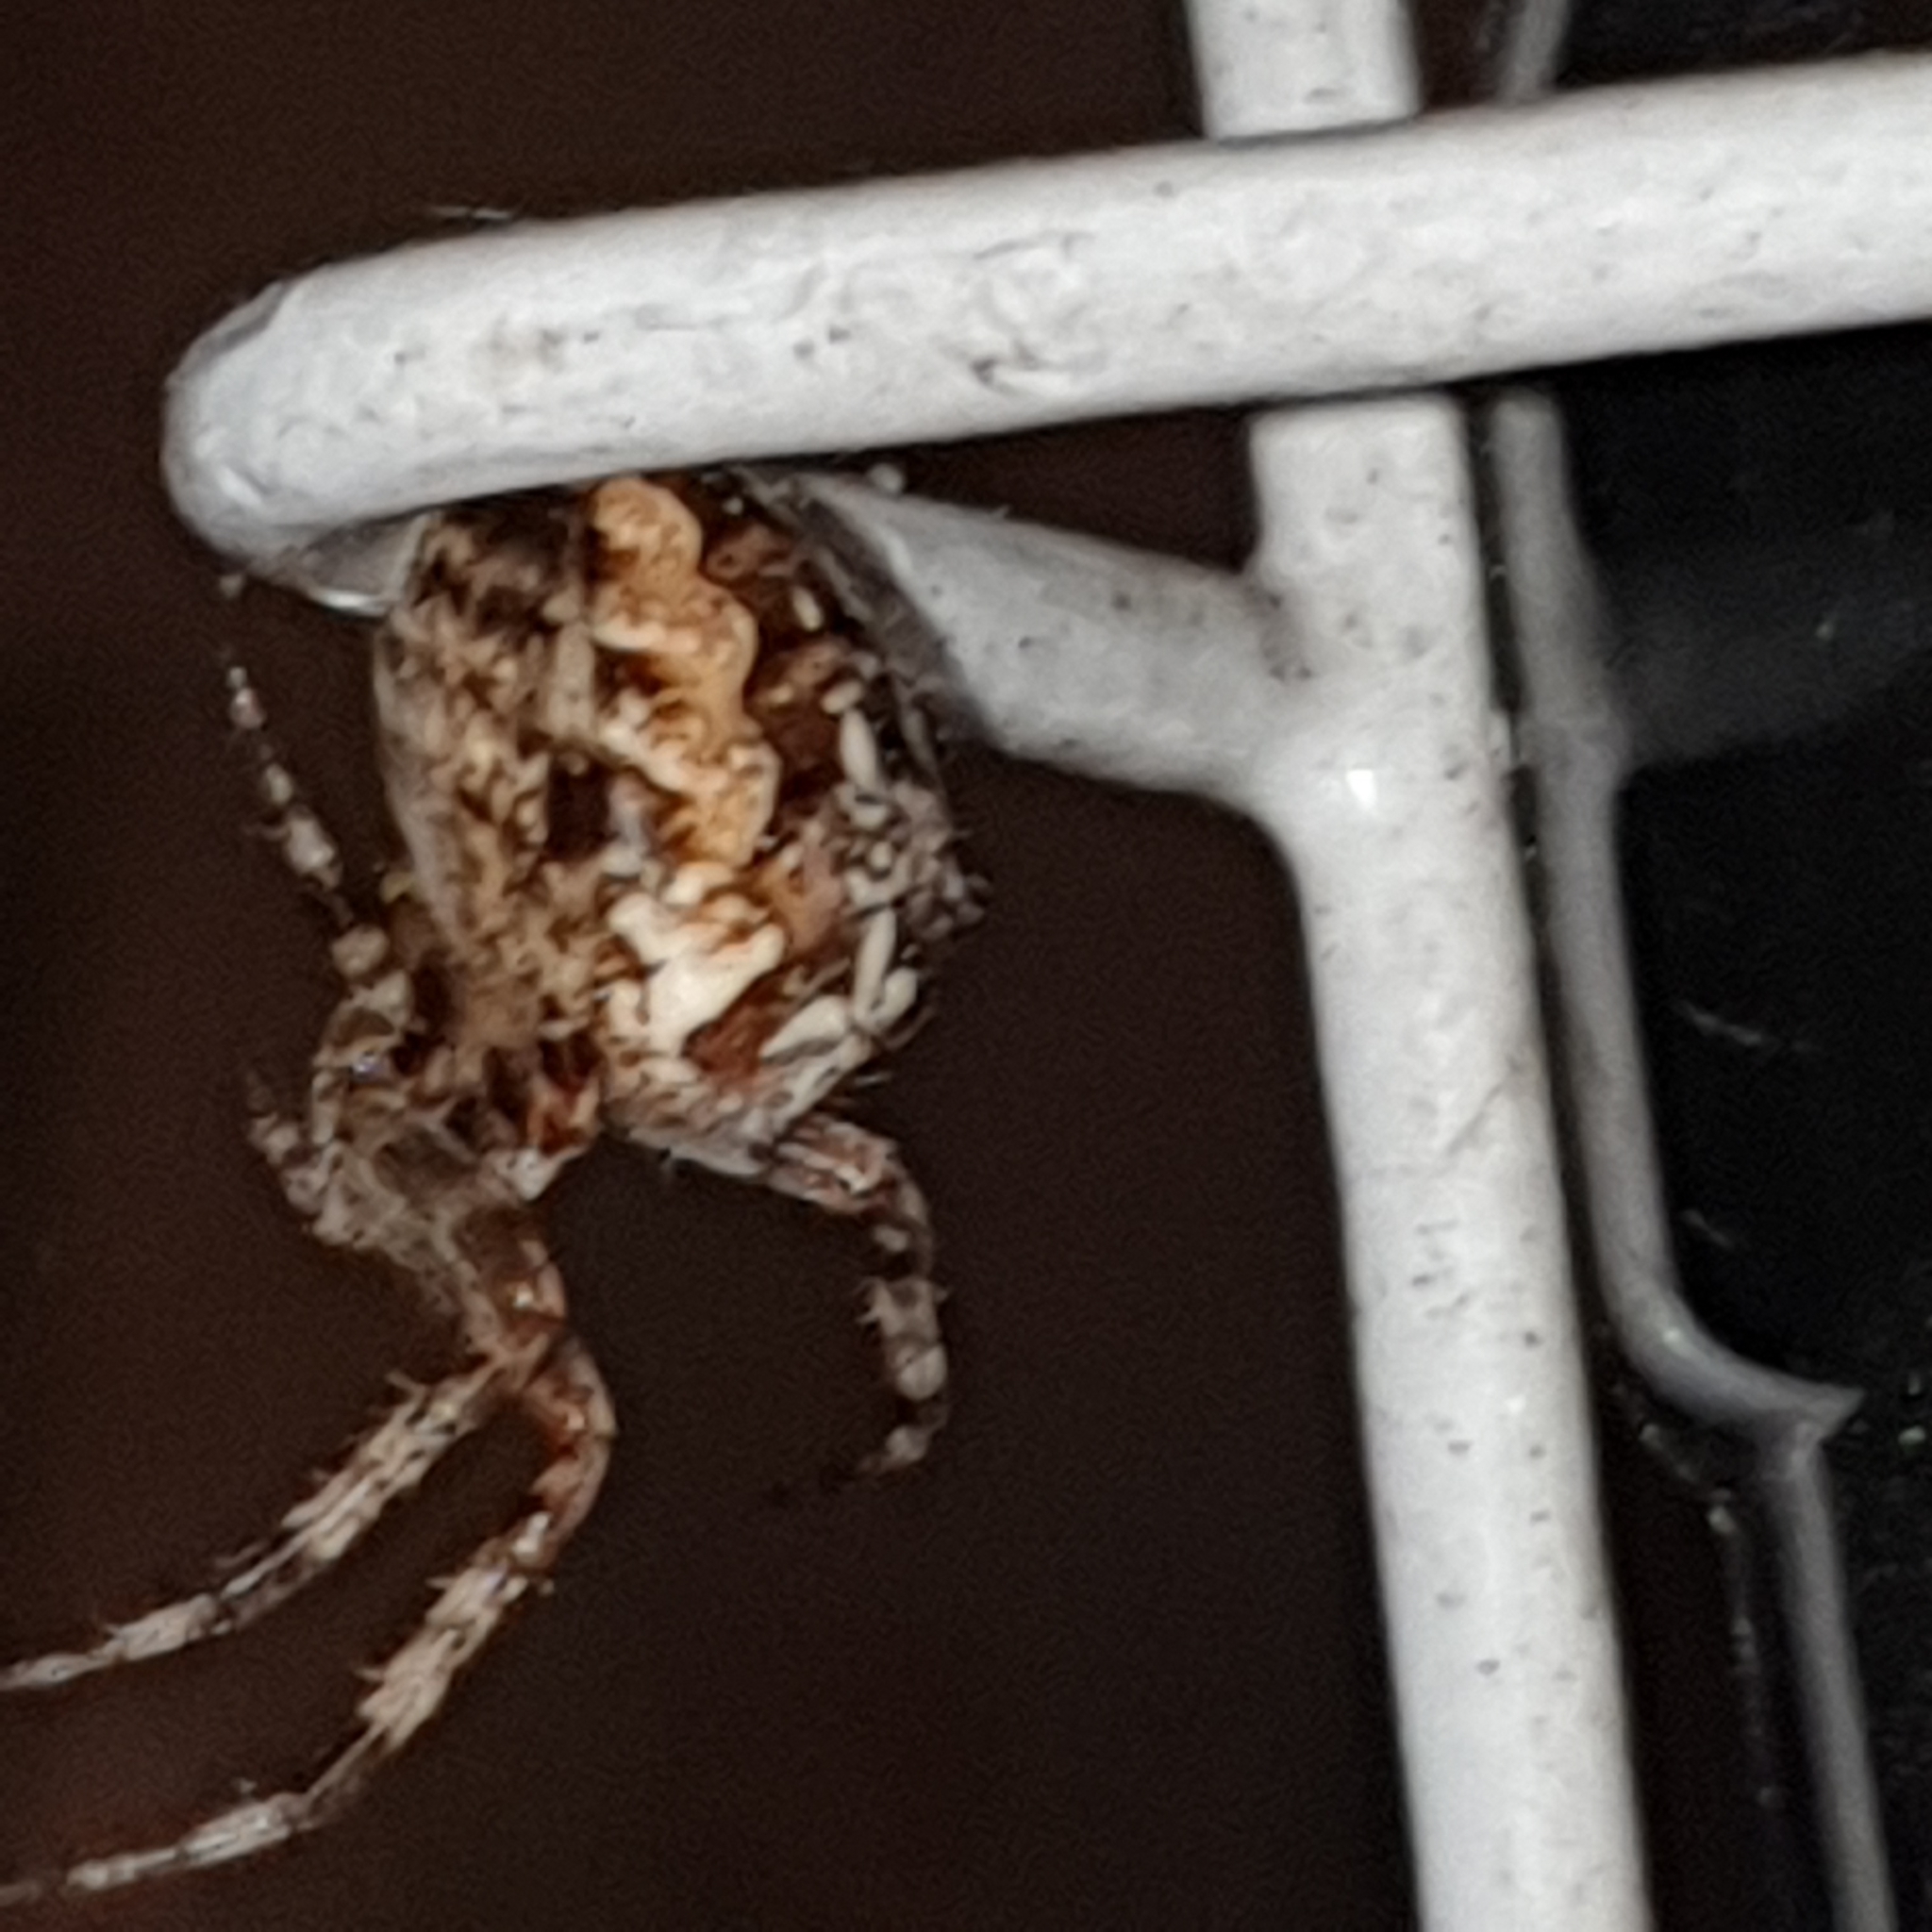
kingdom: Animalia
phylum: Arthropoda
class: Arachnida
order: Araneae
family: Araneidae
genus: Araneus
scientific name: Araneus diadematus
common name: Cross orbweaver
